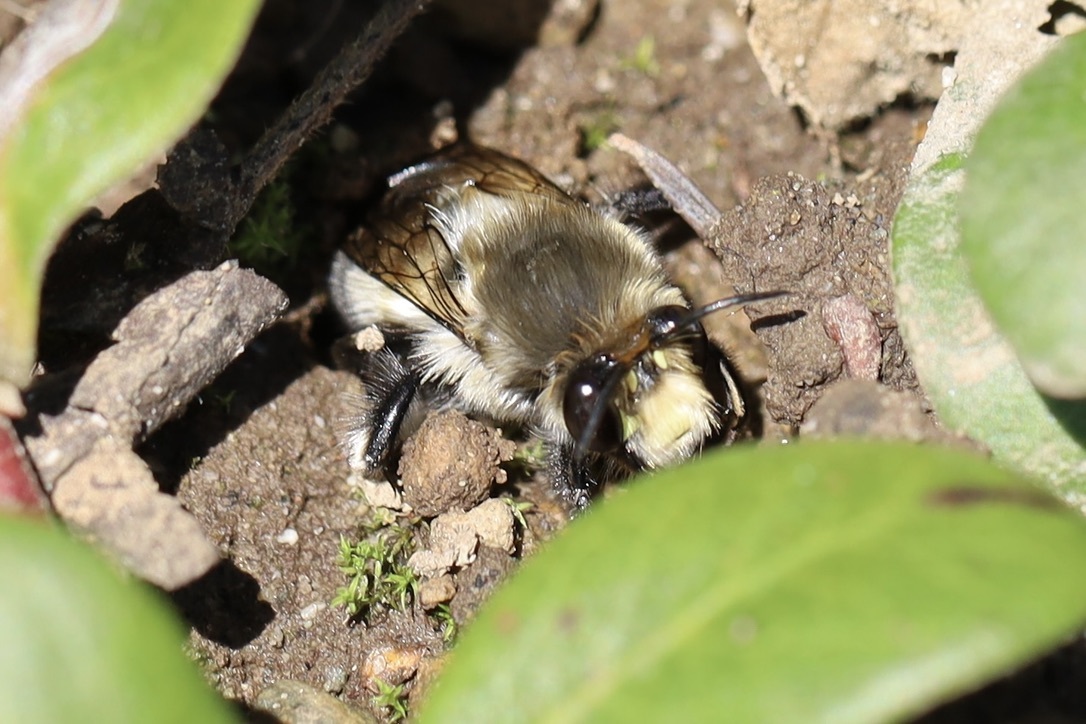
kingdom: Animalia
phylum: Arthropoda
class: Insecta
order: Hymenoptera
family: Apidae
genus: Anthophora
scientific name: Anthophora pacifica
